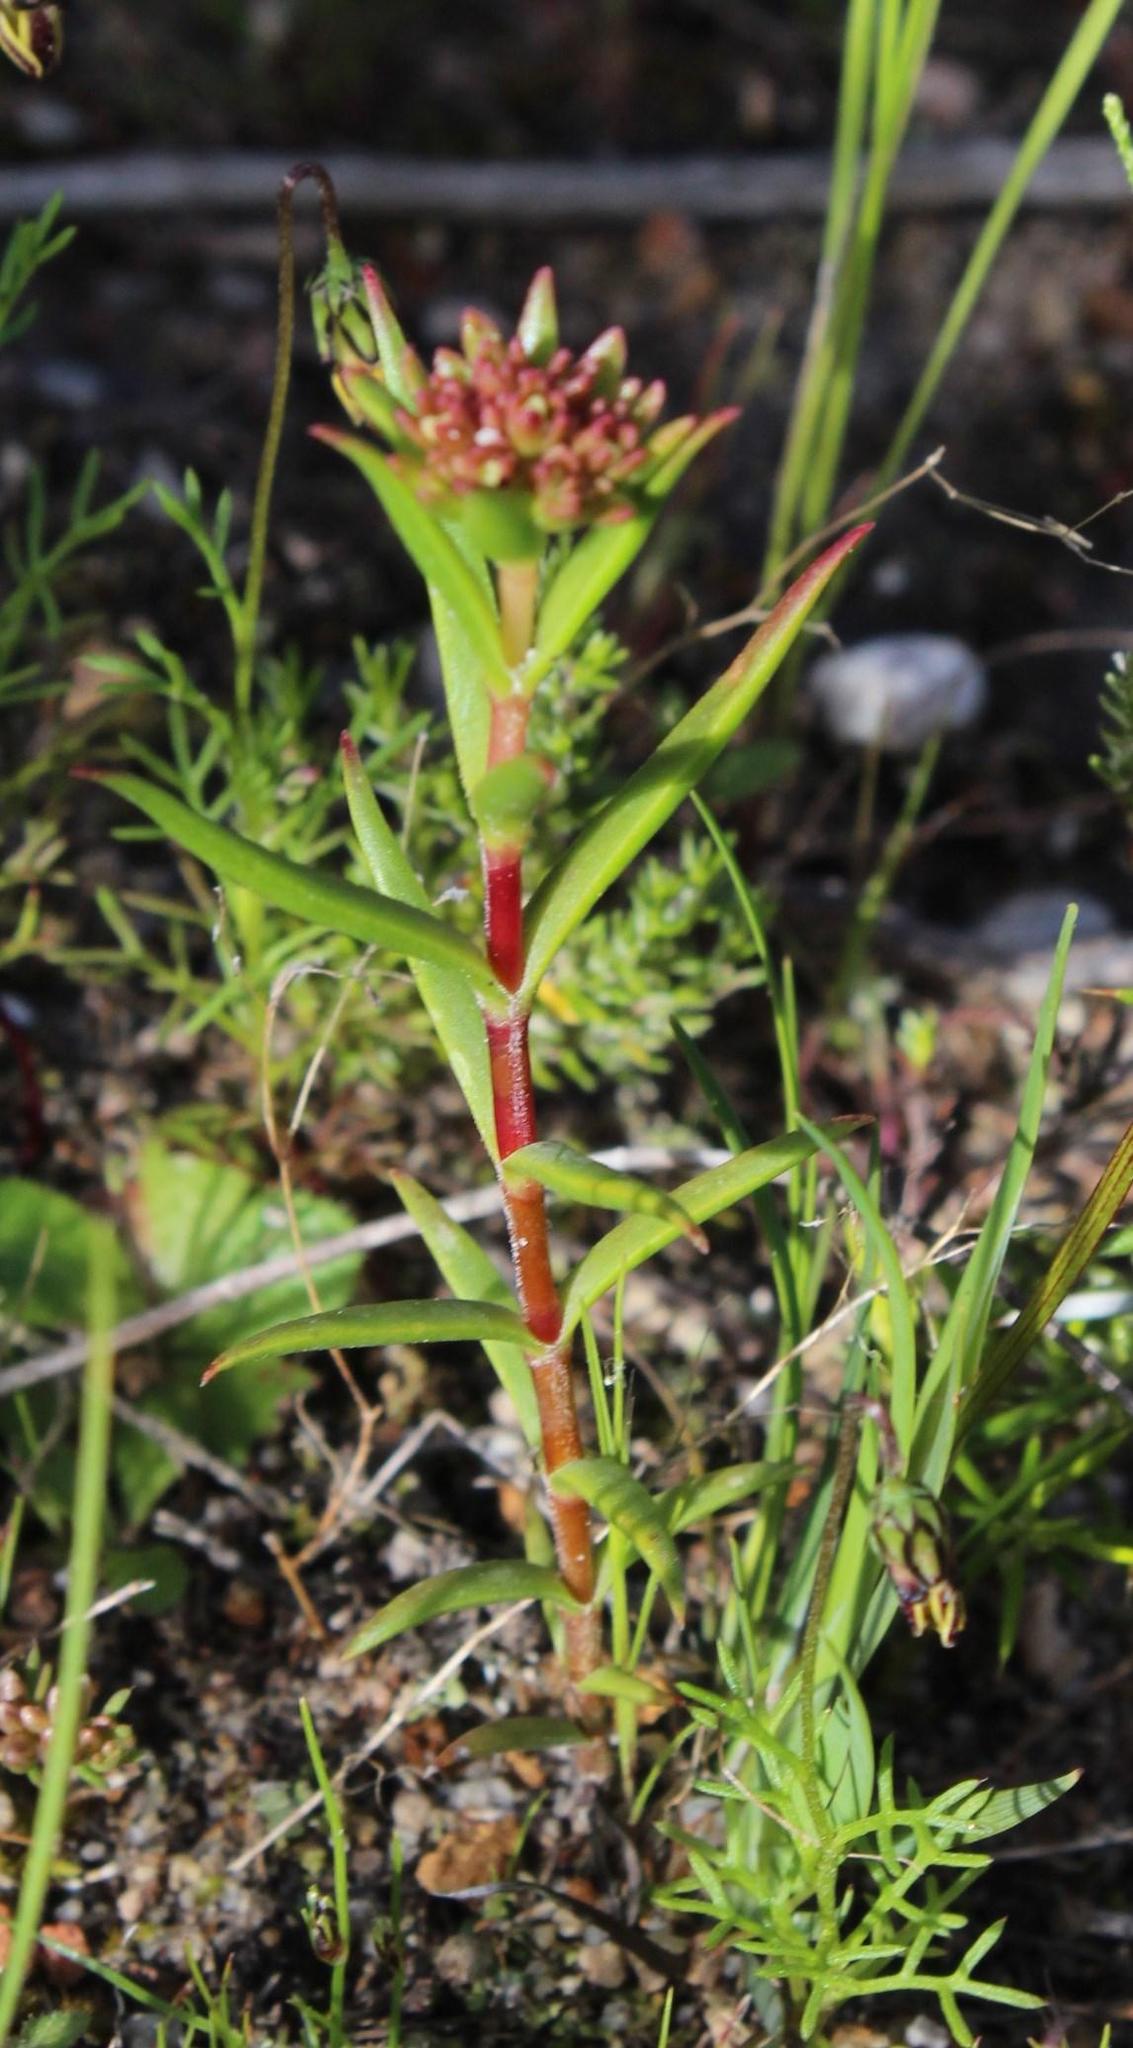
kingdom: Plantae
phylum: Tracheophyta
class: Magnoliopsida
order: Saxifragales
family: Crassulaceae
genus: Crassula
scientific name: Crassula subulata
